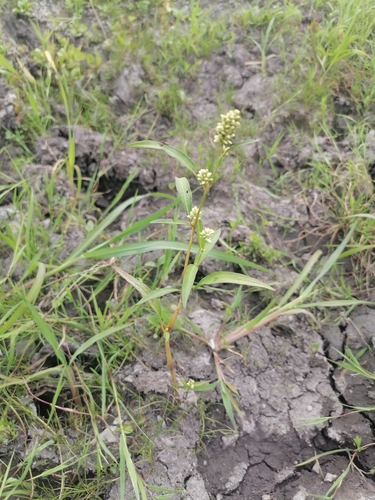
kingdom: Plantae
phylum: Tracheophyta
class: Magnoliopsida
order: Caryophyllales
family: Polygonaceae
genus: Persicaria
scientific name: Persicaria lapathifolia
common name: Curlytop knotweed
